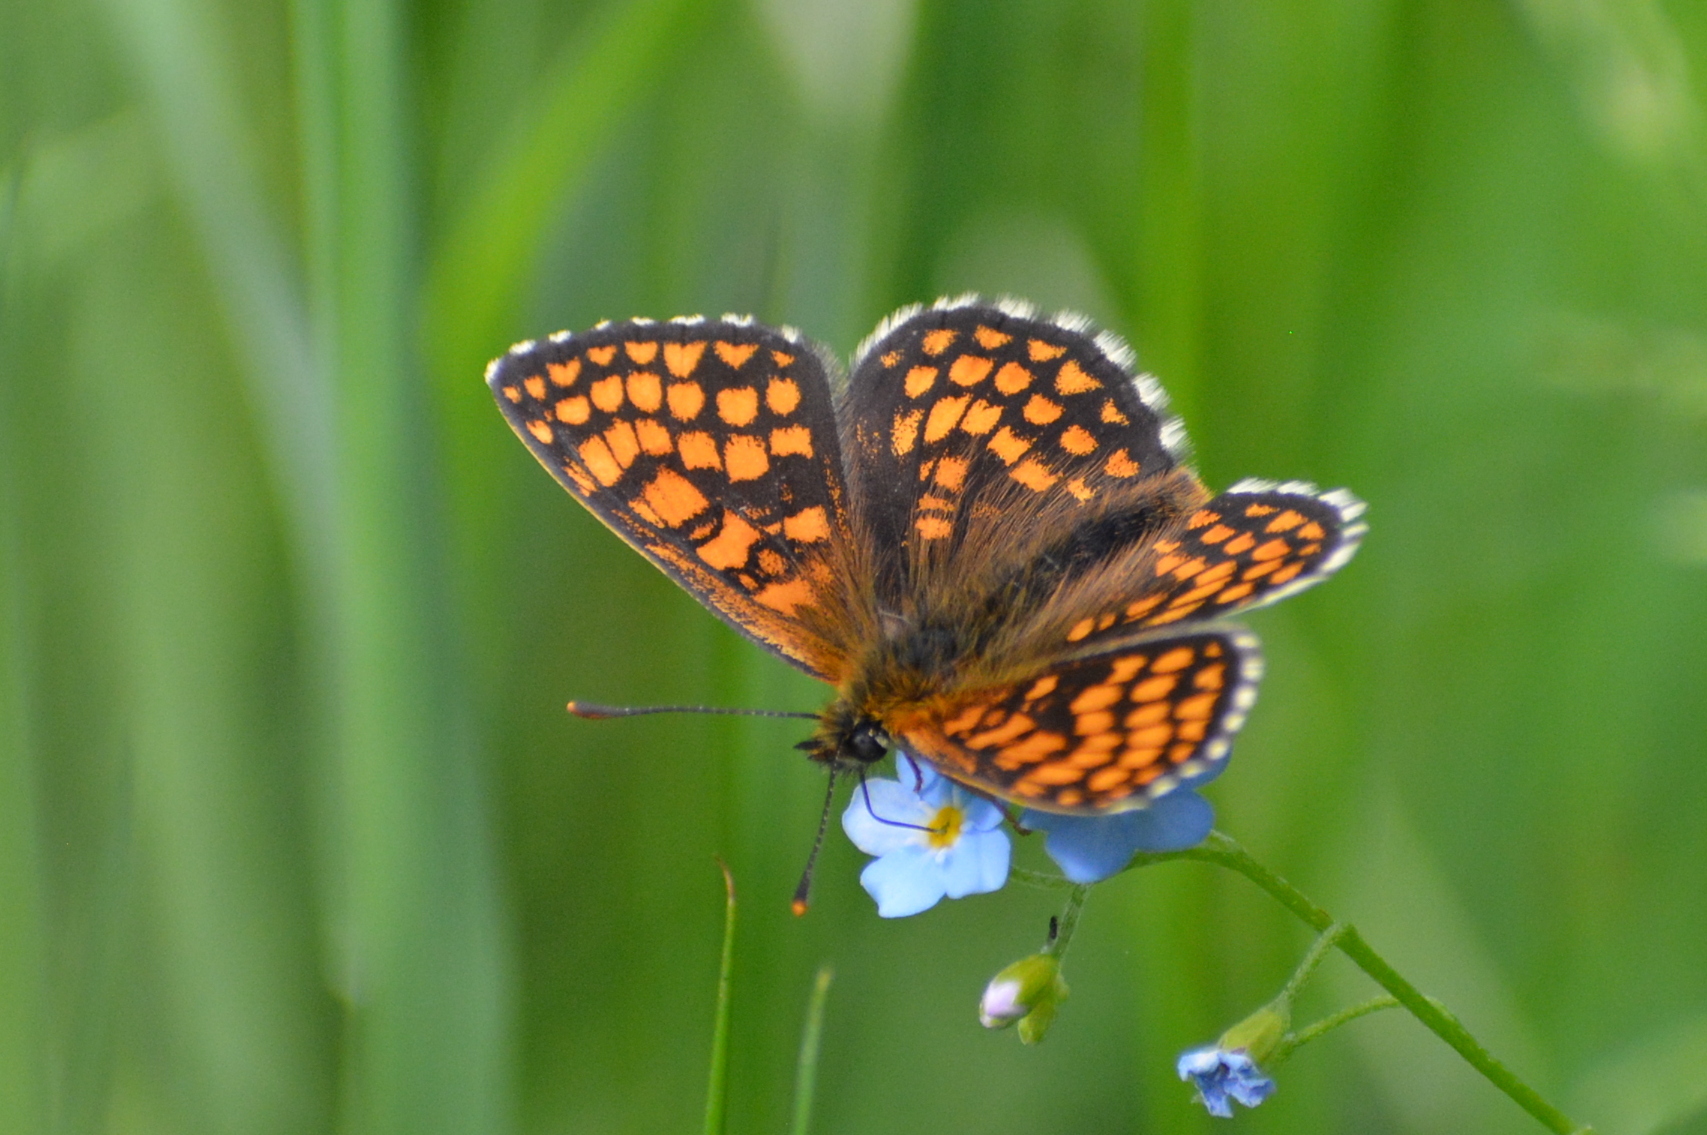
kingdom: Animalia
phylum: Arthropoda
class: Insecta
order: Lepidoptera
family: Nymphalidae
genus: Melitaea
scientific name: Melitaea athalia
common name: Heath fritillary
